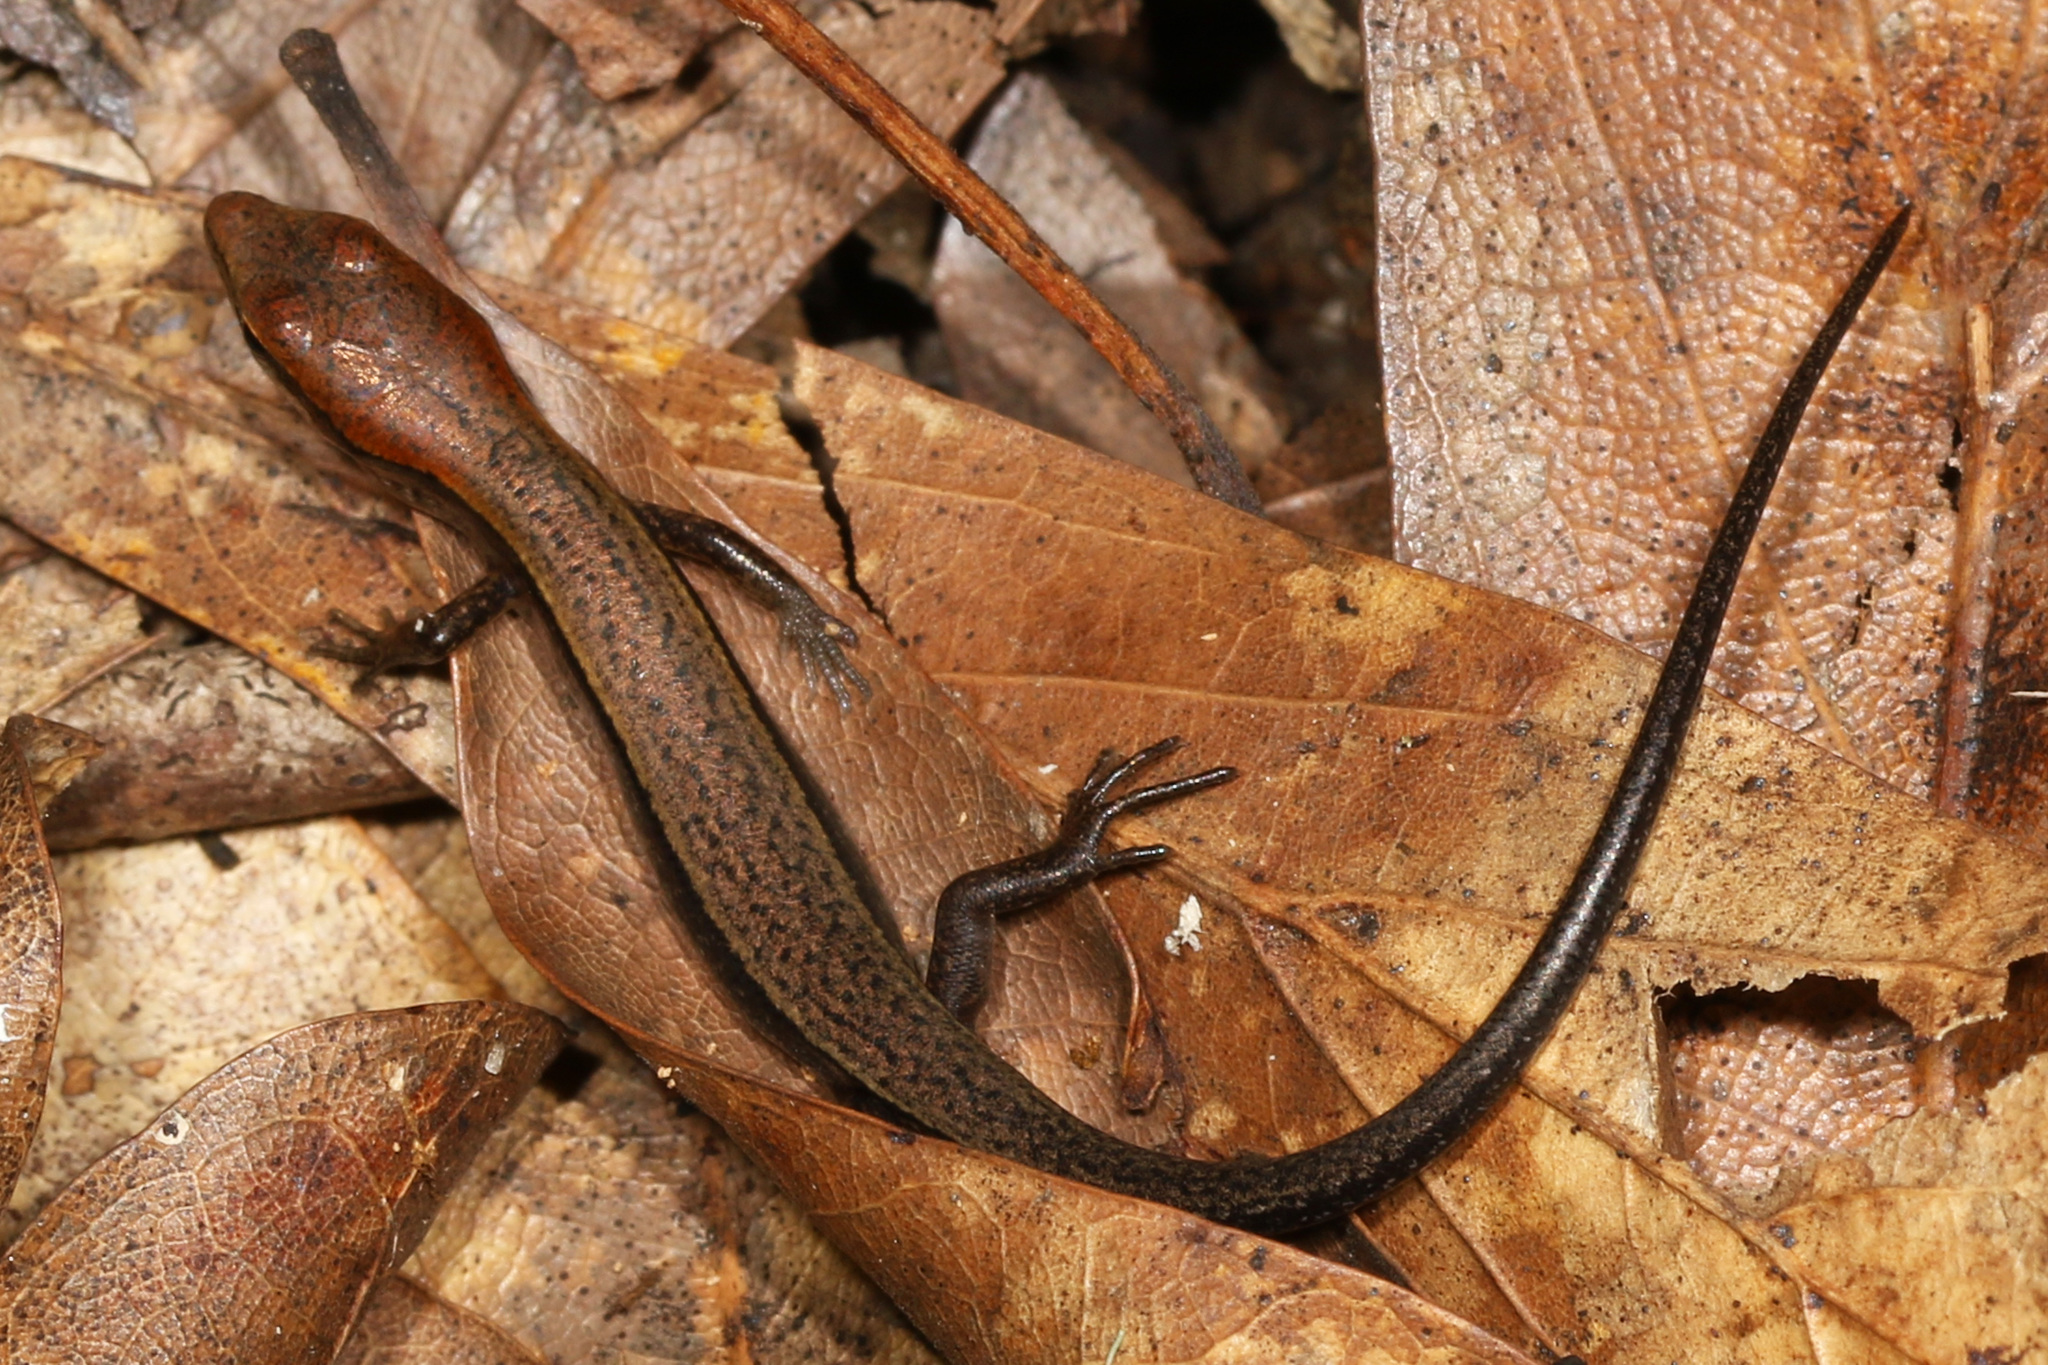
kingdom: Animalia
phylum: Chordata
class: Squamata
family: Scincidae
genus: Scincella
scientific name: Scincella lateralis
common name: Ground skink
